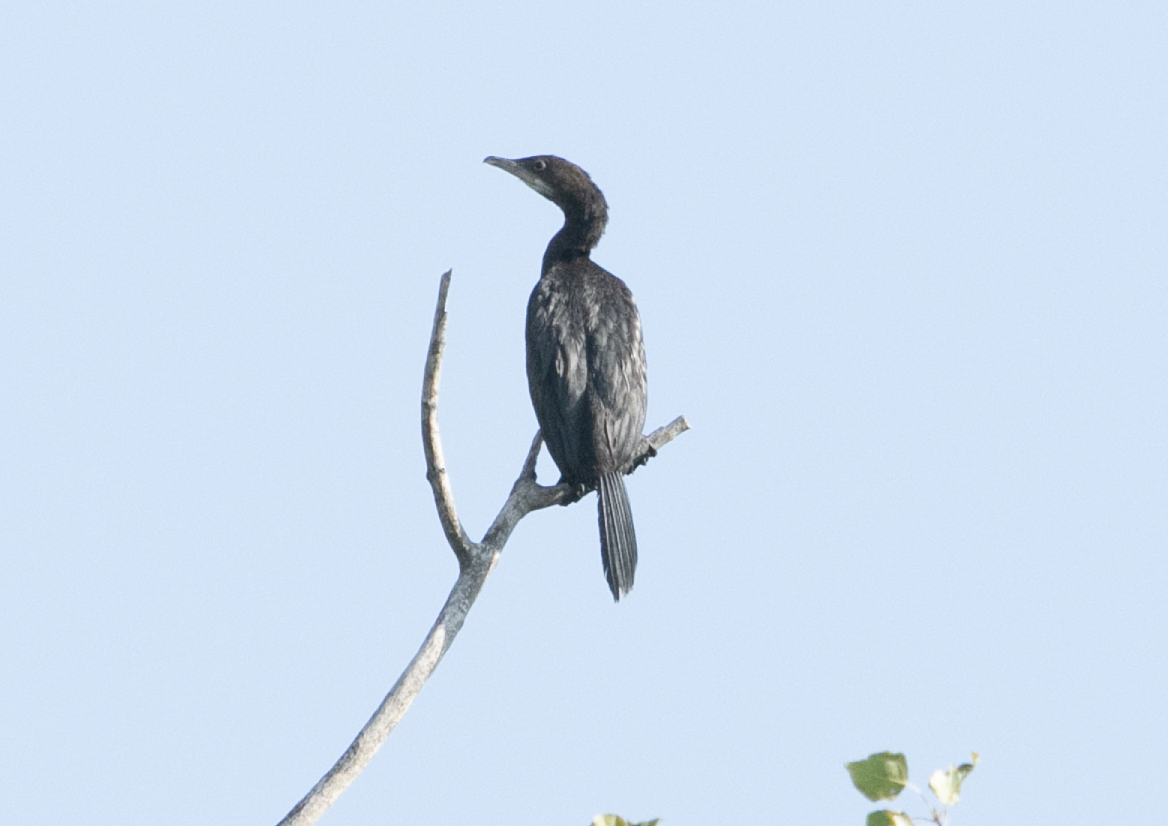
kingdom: Animalia
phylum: Chordata
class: Aves
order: Suliformes
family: Phalacrocoracidae
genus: Microcarbo
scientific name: Microcarbo pygmaeus
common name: Pygmy cormorant
